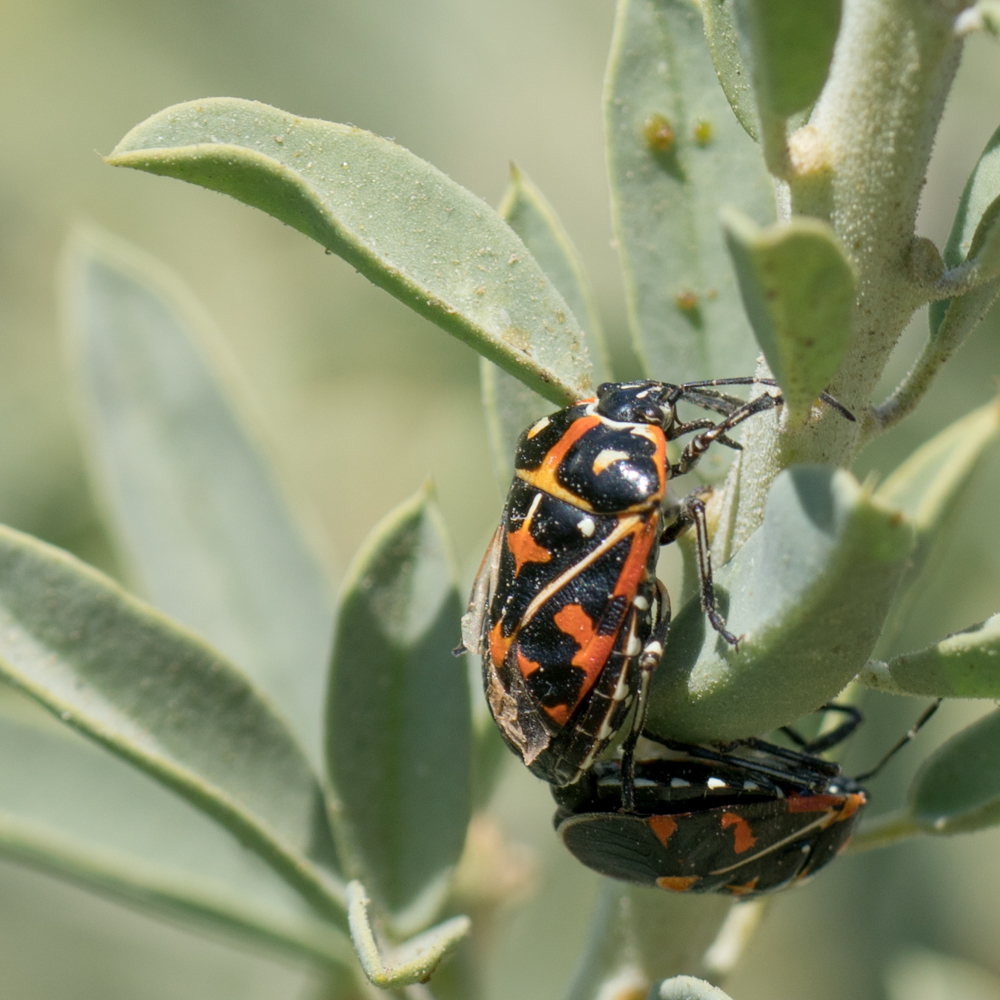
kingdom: Animalia
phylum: Arthropoda
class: Insecta
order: Hemiptera
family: Pentatomidae
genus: Murgantia
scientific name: Murgantia histrionica
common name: Harlequin bug
